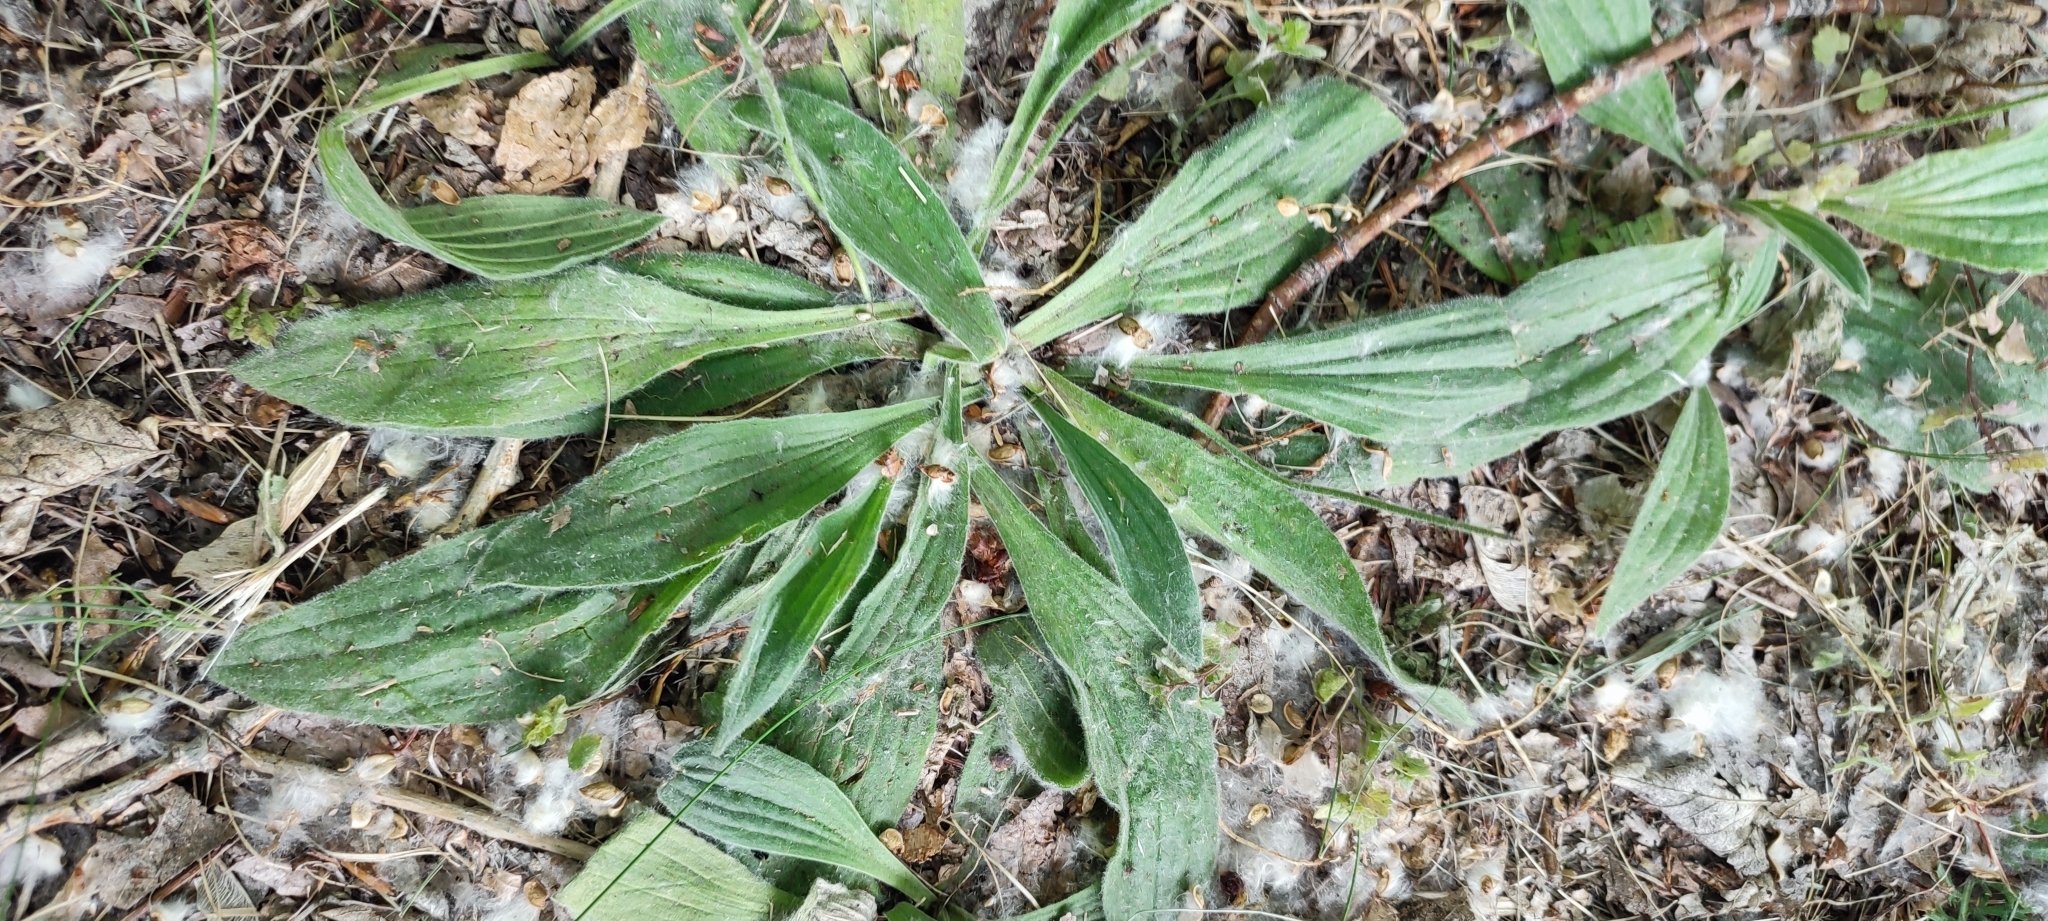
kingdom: Plantae
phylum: Tracheophyta
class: Magnoliopsida
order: Lamiales
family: Plantaginaceae
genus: Plantago
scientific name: Plantago urvillei
